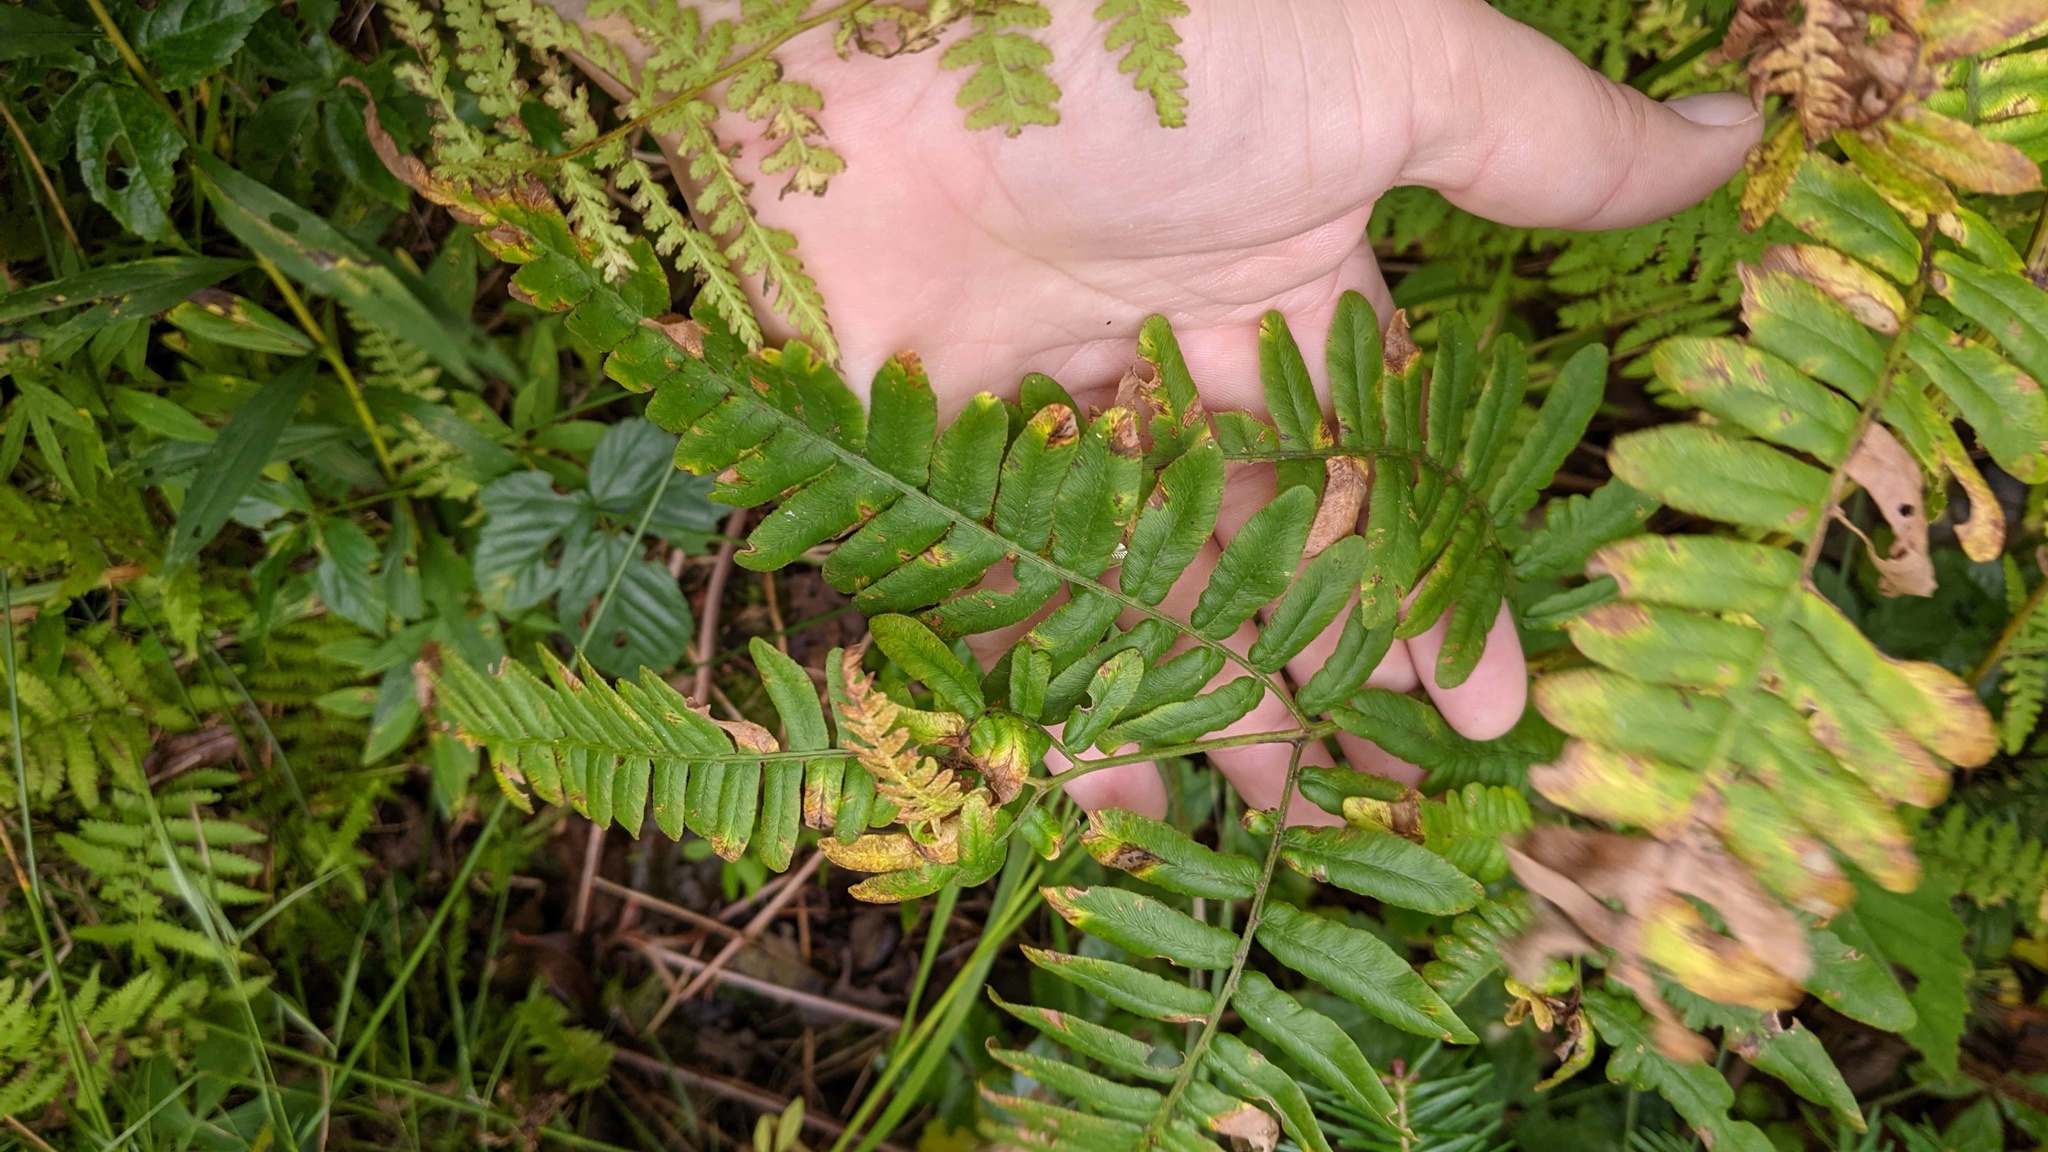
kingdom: Plantae
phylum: Tracheophyta
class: Polypodiopsida
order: Polypodiales
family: Dennstaedtiaceae
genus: Pteridium
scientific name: Pteridium aquilinum
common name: Bracken
